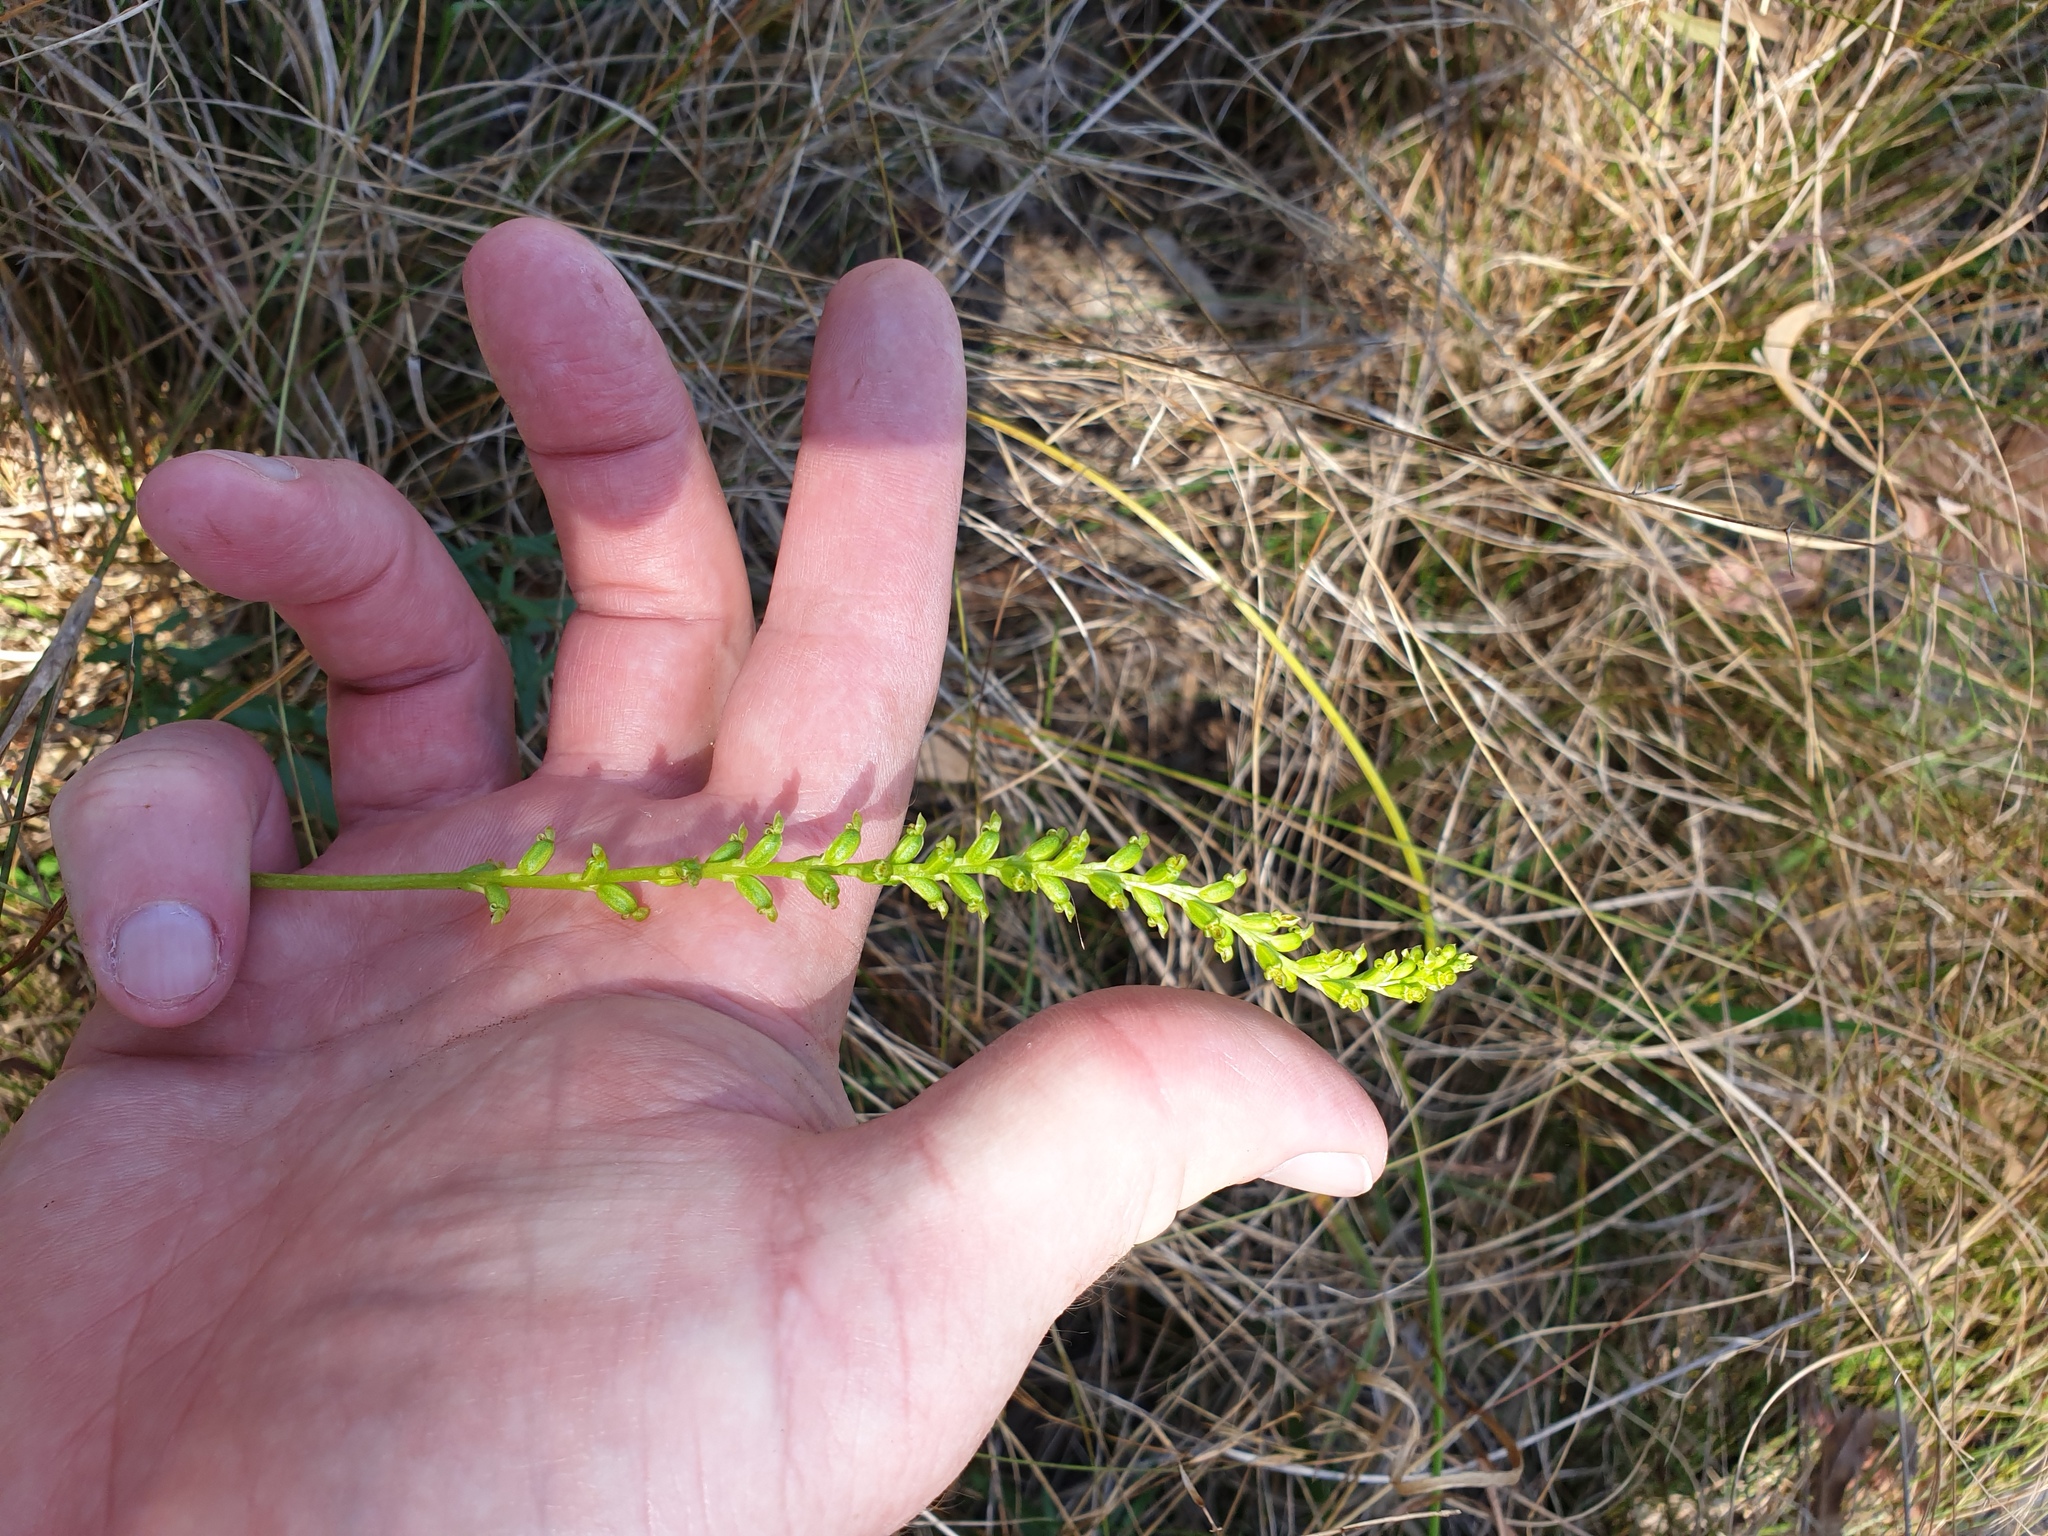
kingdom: Plantae
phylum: Tracheophyta
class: Liliopsida
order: Asparagales
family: Orchidaceae
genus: Microtis
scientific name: Microtis parviflora
